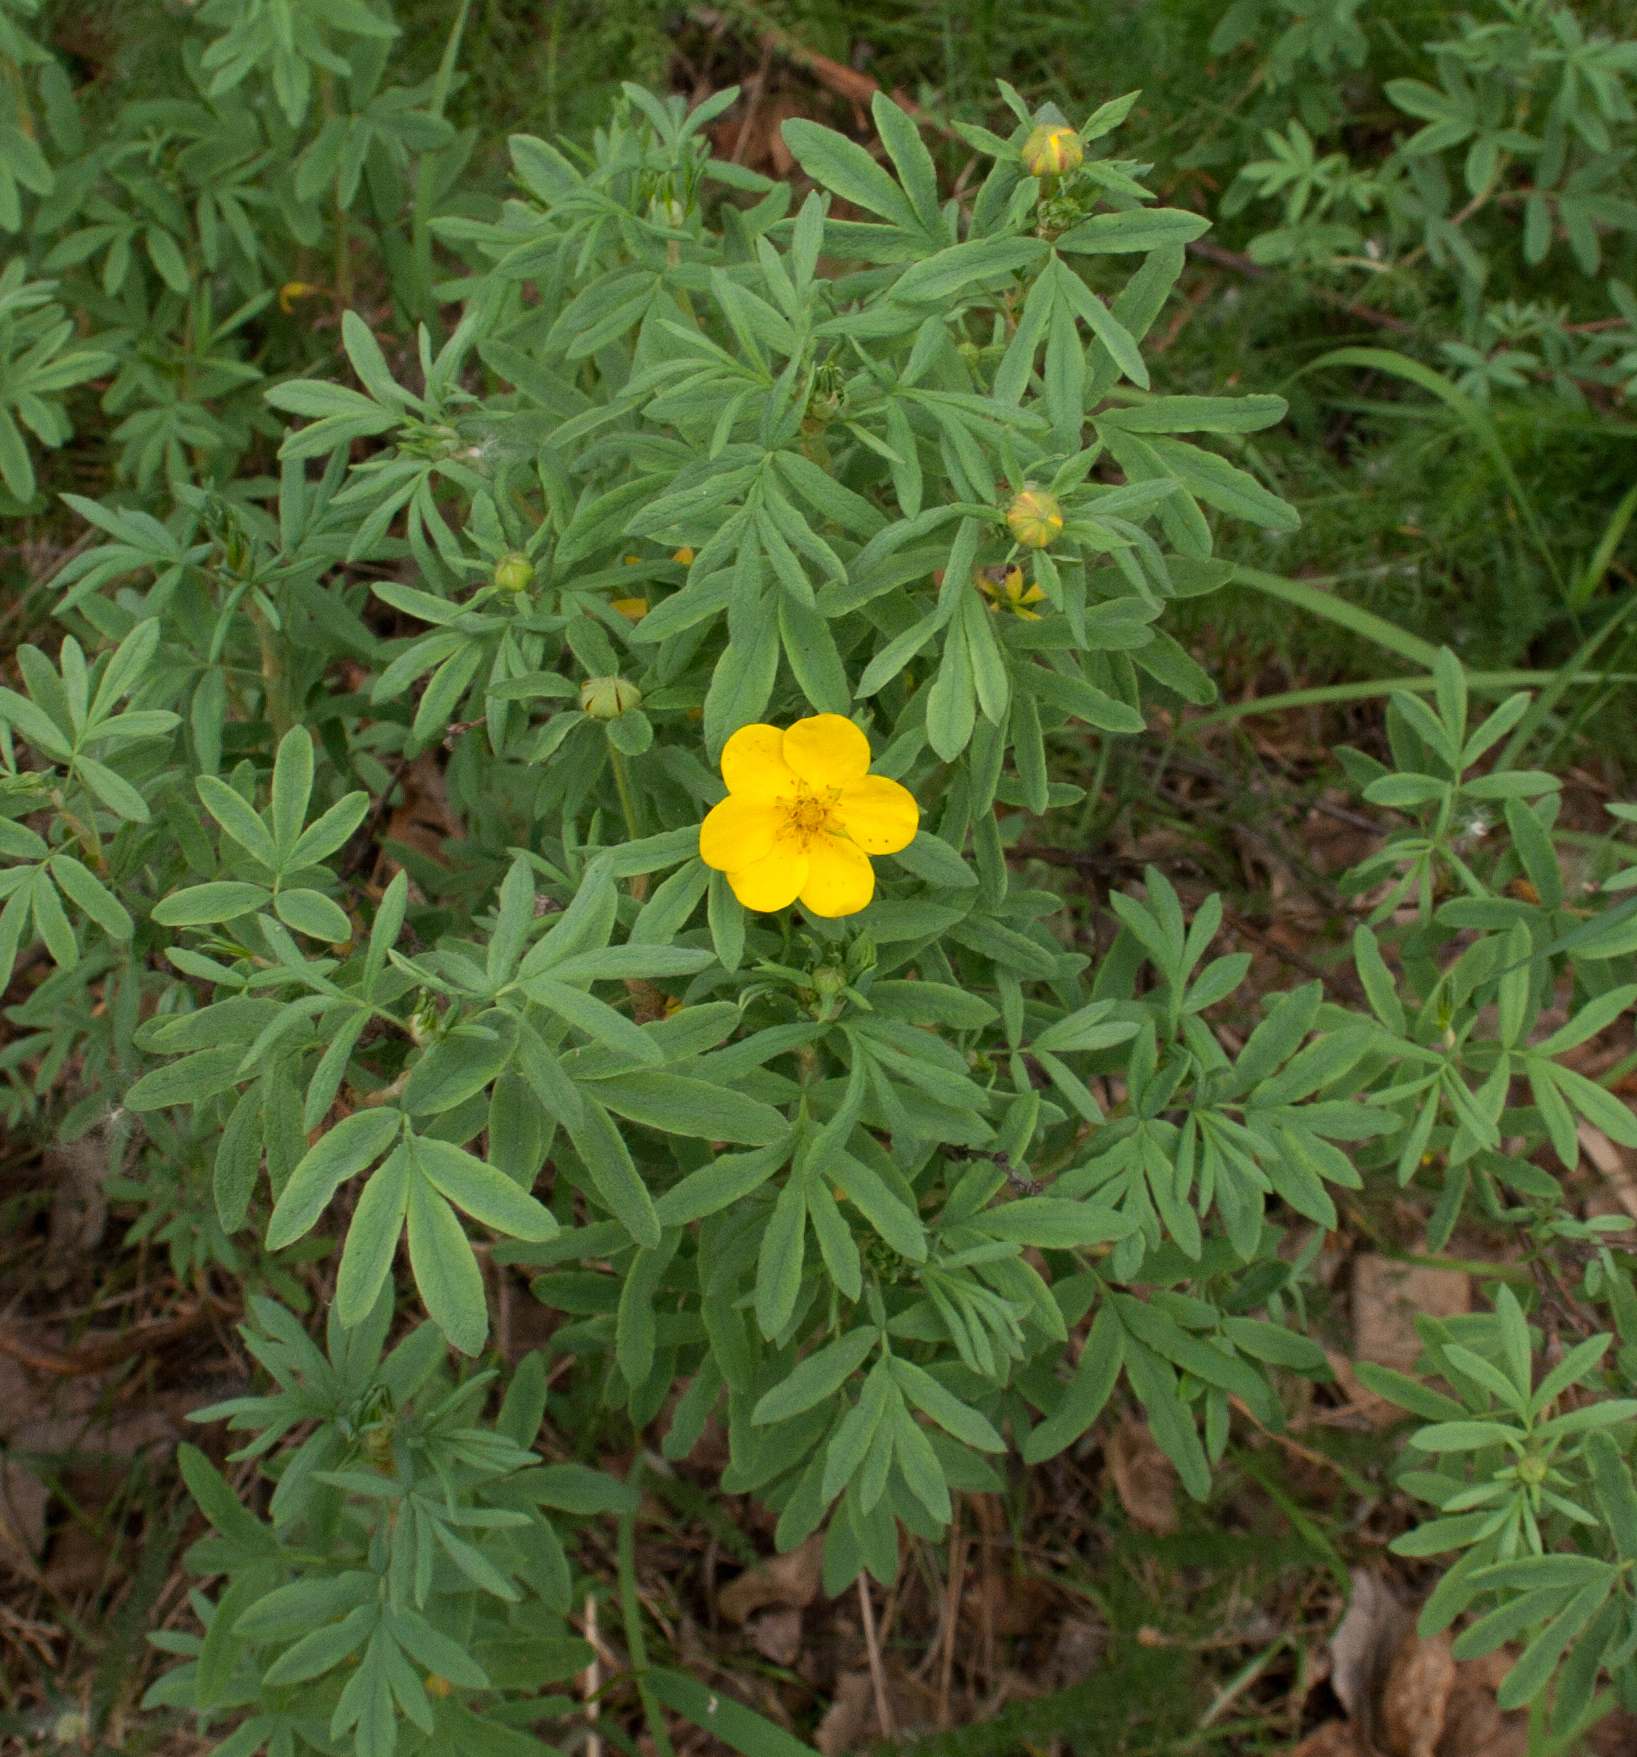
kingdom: Plantae
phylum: Tracheophyta
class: Magnoliopsida
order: Rosales
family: Rosaceae
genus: Dasiphora
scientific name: Dasiphora fruticosa
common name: Shrubby cinquefoil
